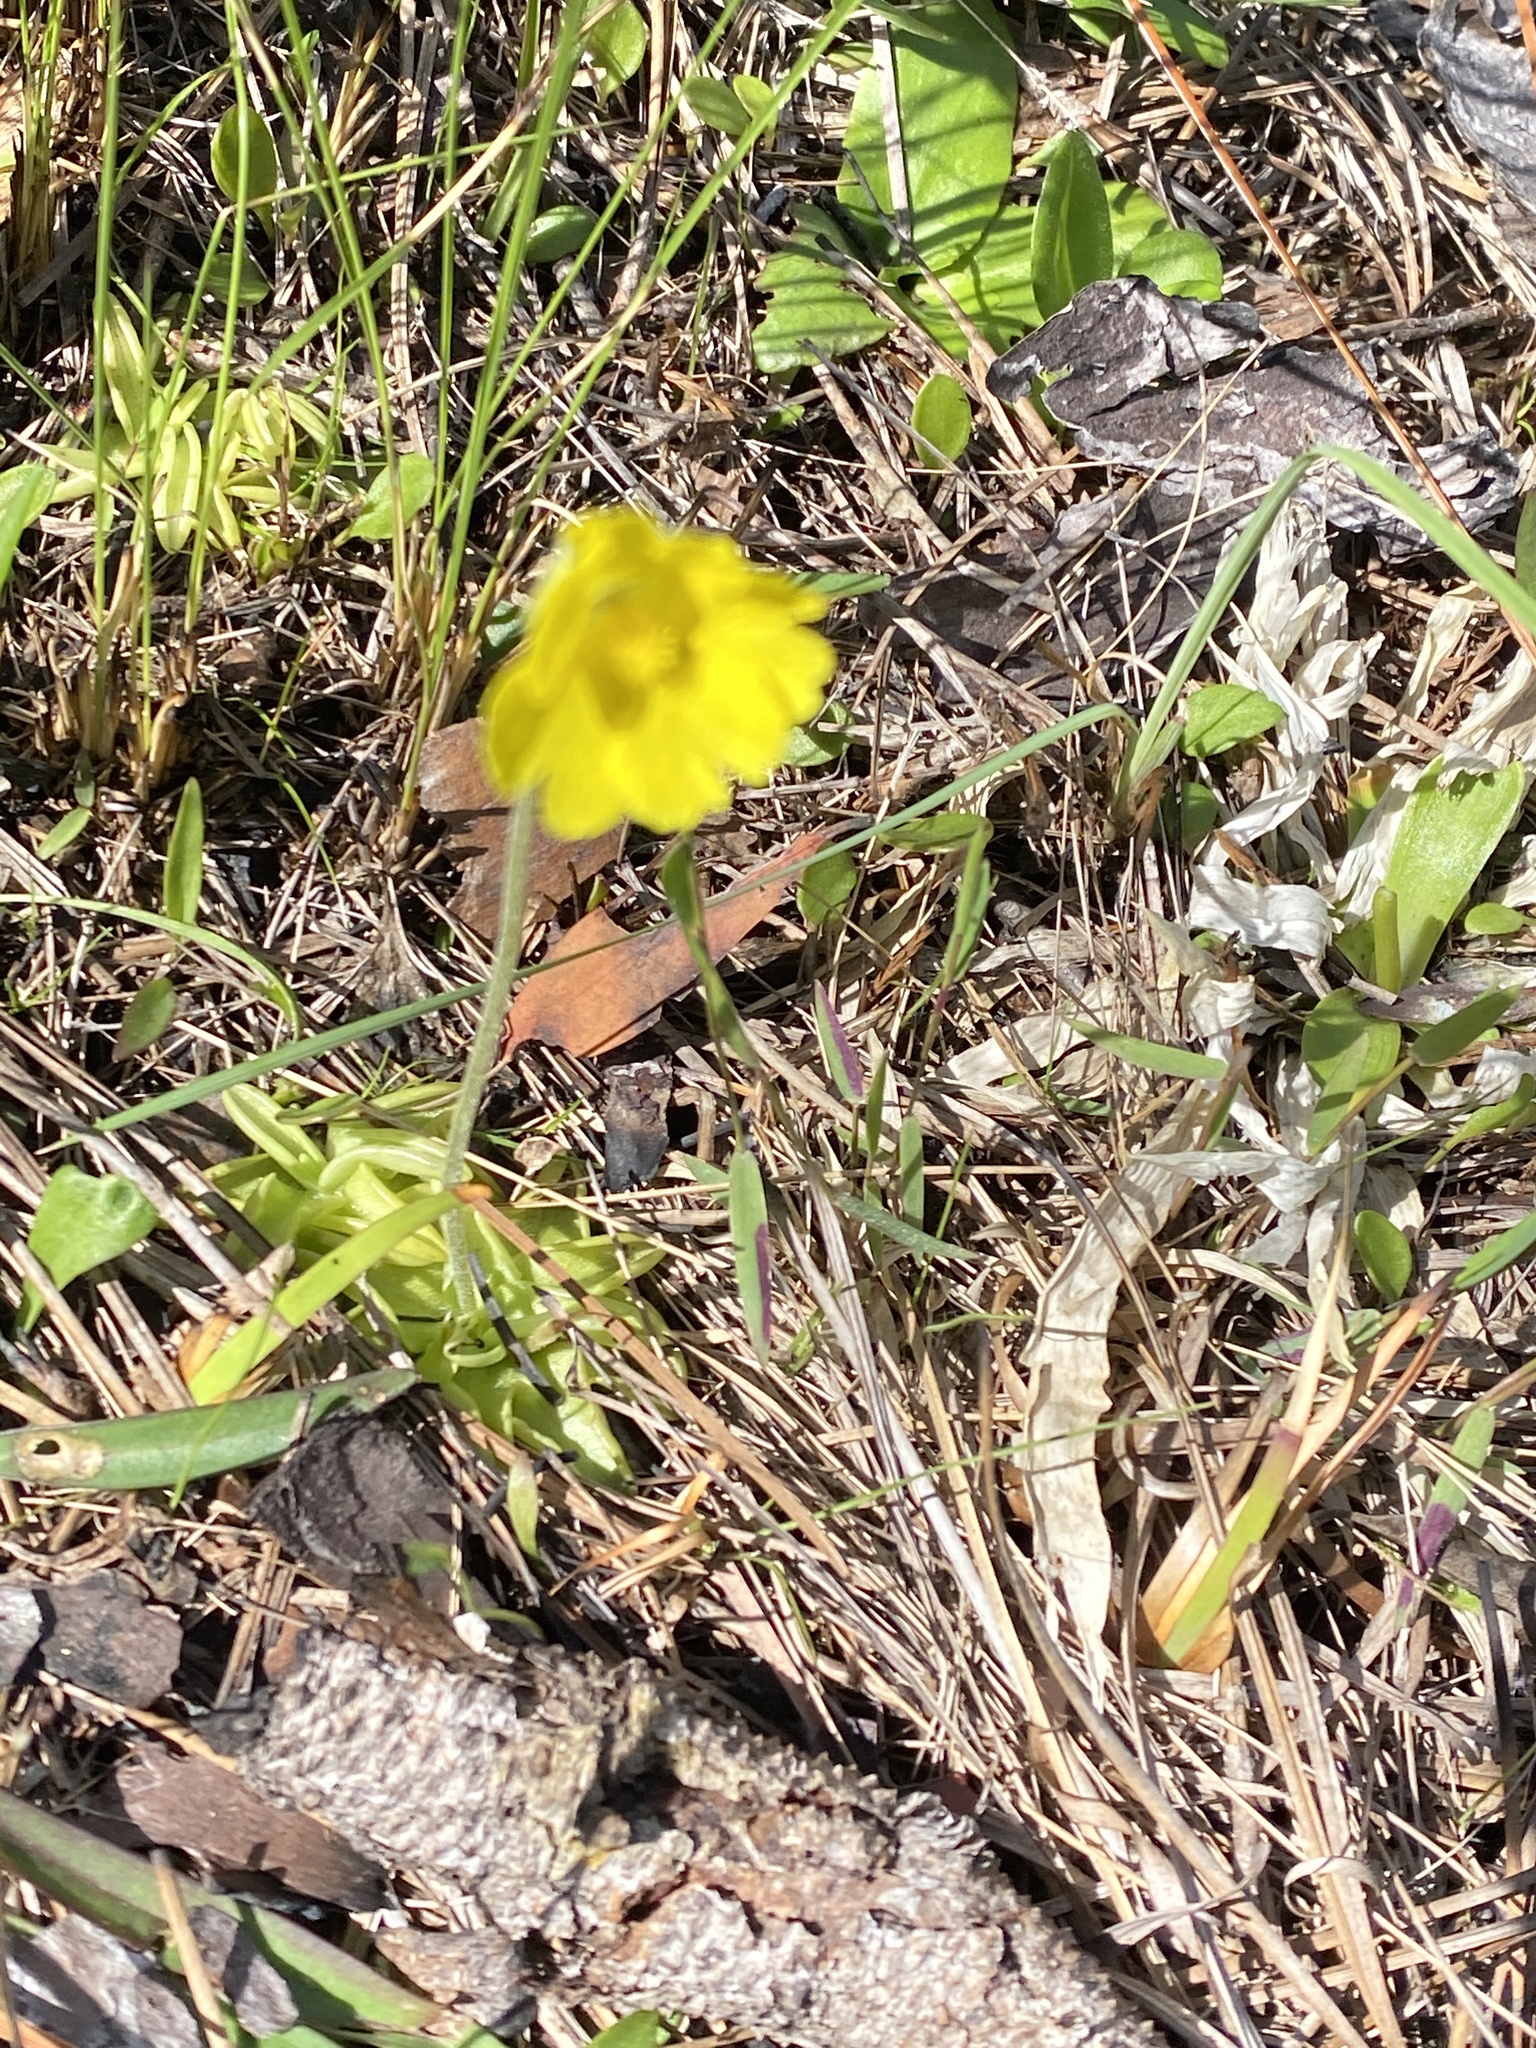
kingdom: Plantae
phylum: Tracheophyta
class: Magnoliopsida
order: Lamiales
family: Lentibulariaceae
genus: Pinguicula
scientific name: Pinguicula lutea
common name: Yellow butterwort
